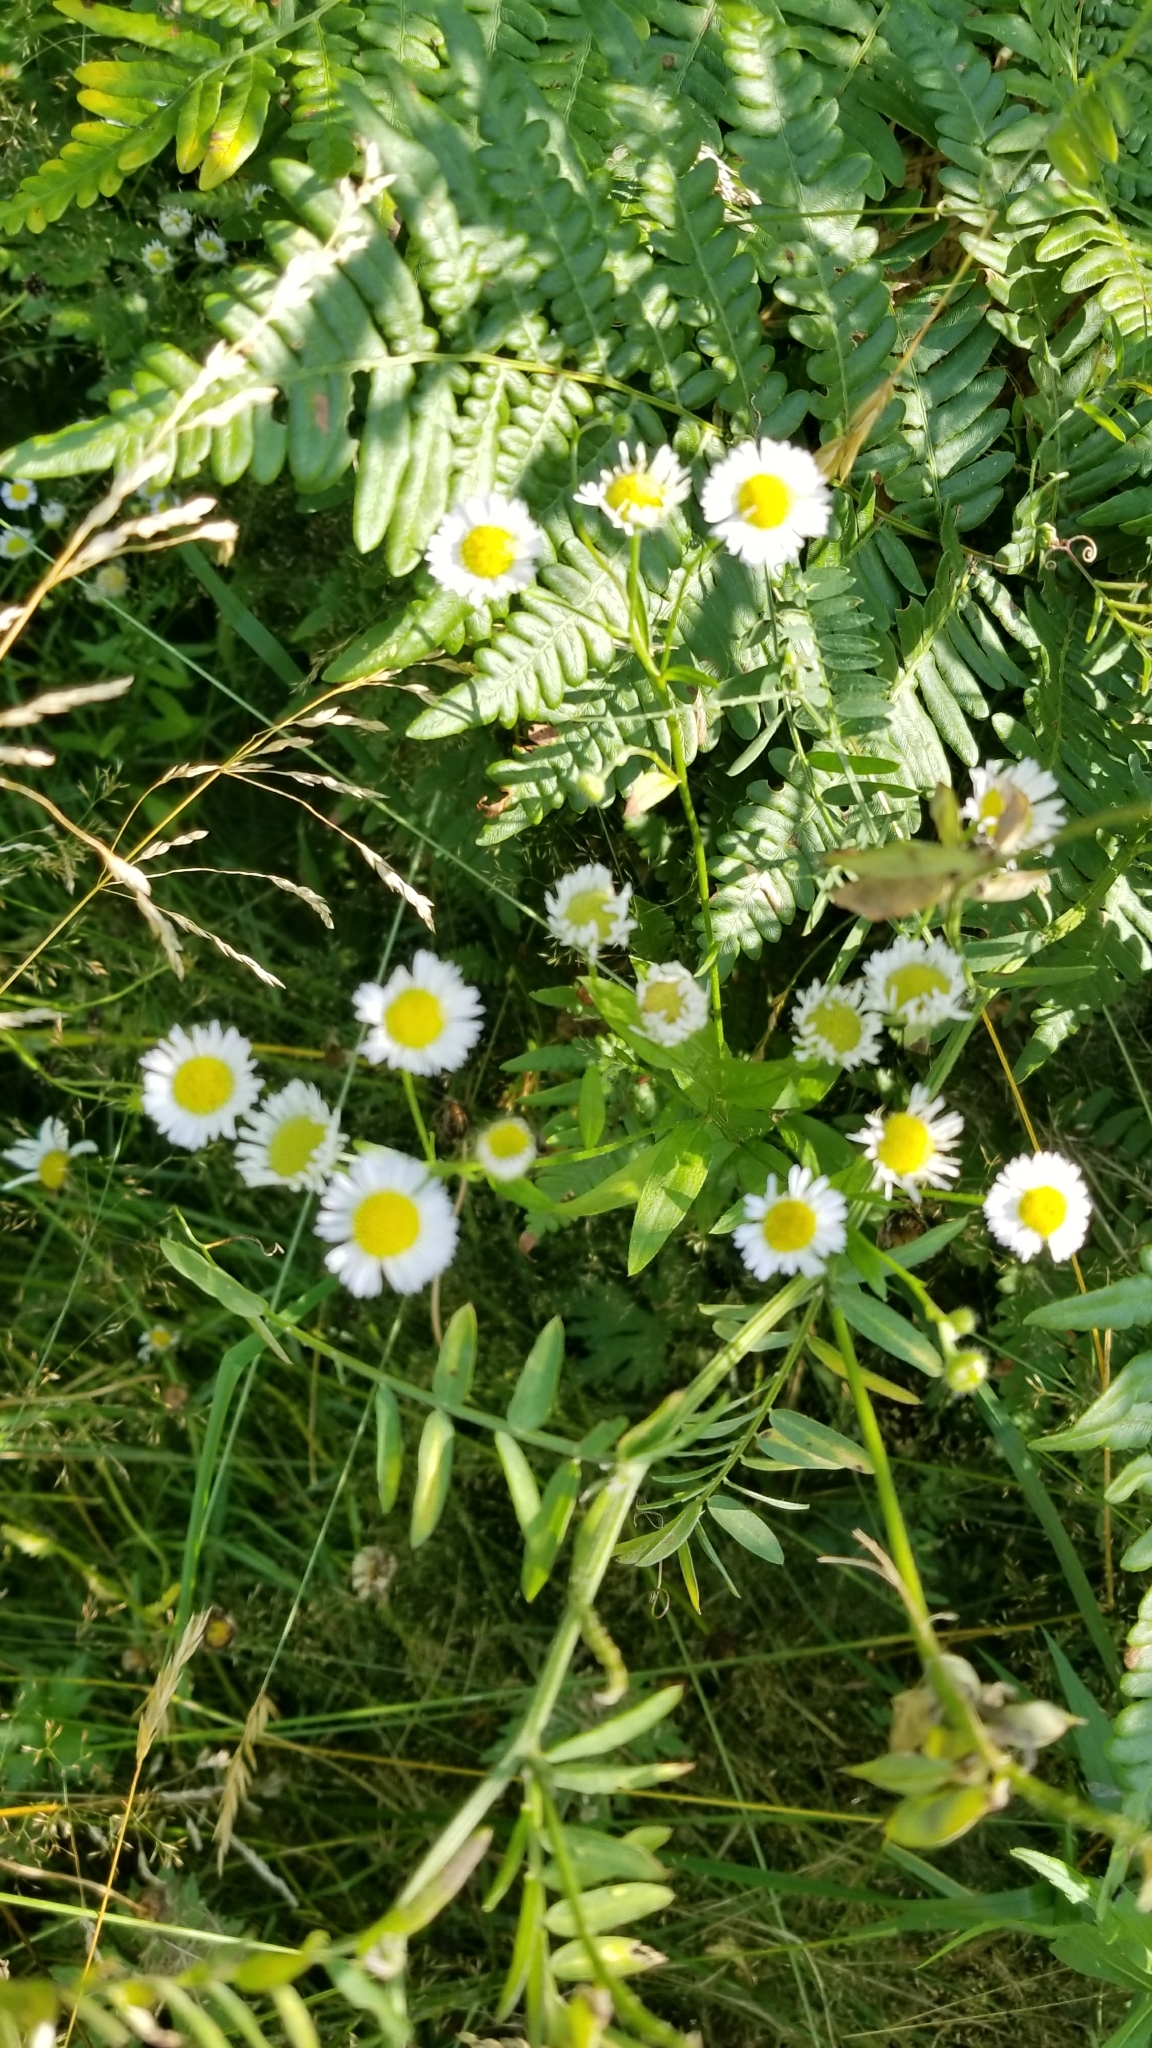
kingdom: Plantae
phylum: Tracheophyta
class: Magnoliopsida
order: Asterales
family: Asteraceae
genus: Erigeron
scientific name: Erigeron strigosus
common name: Common eastern fleabane
